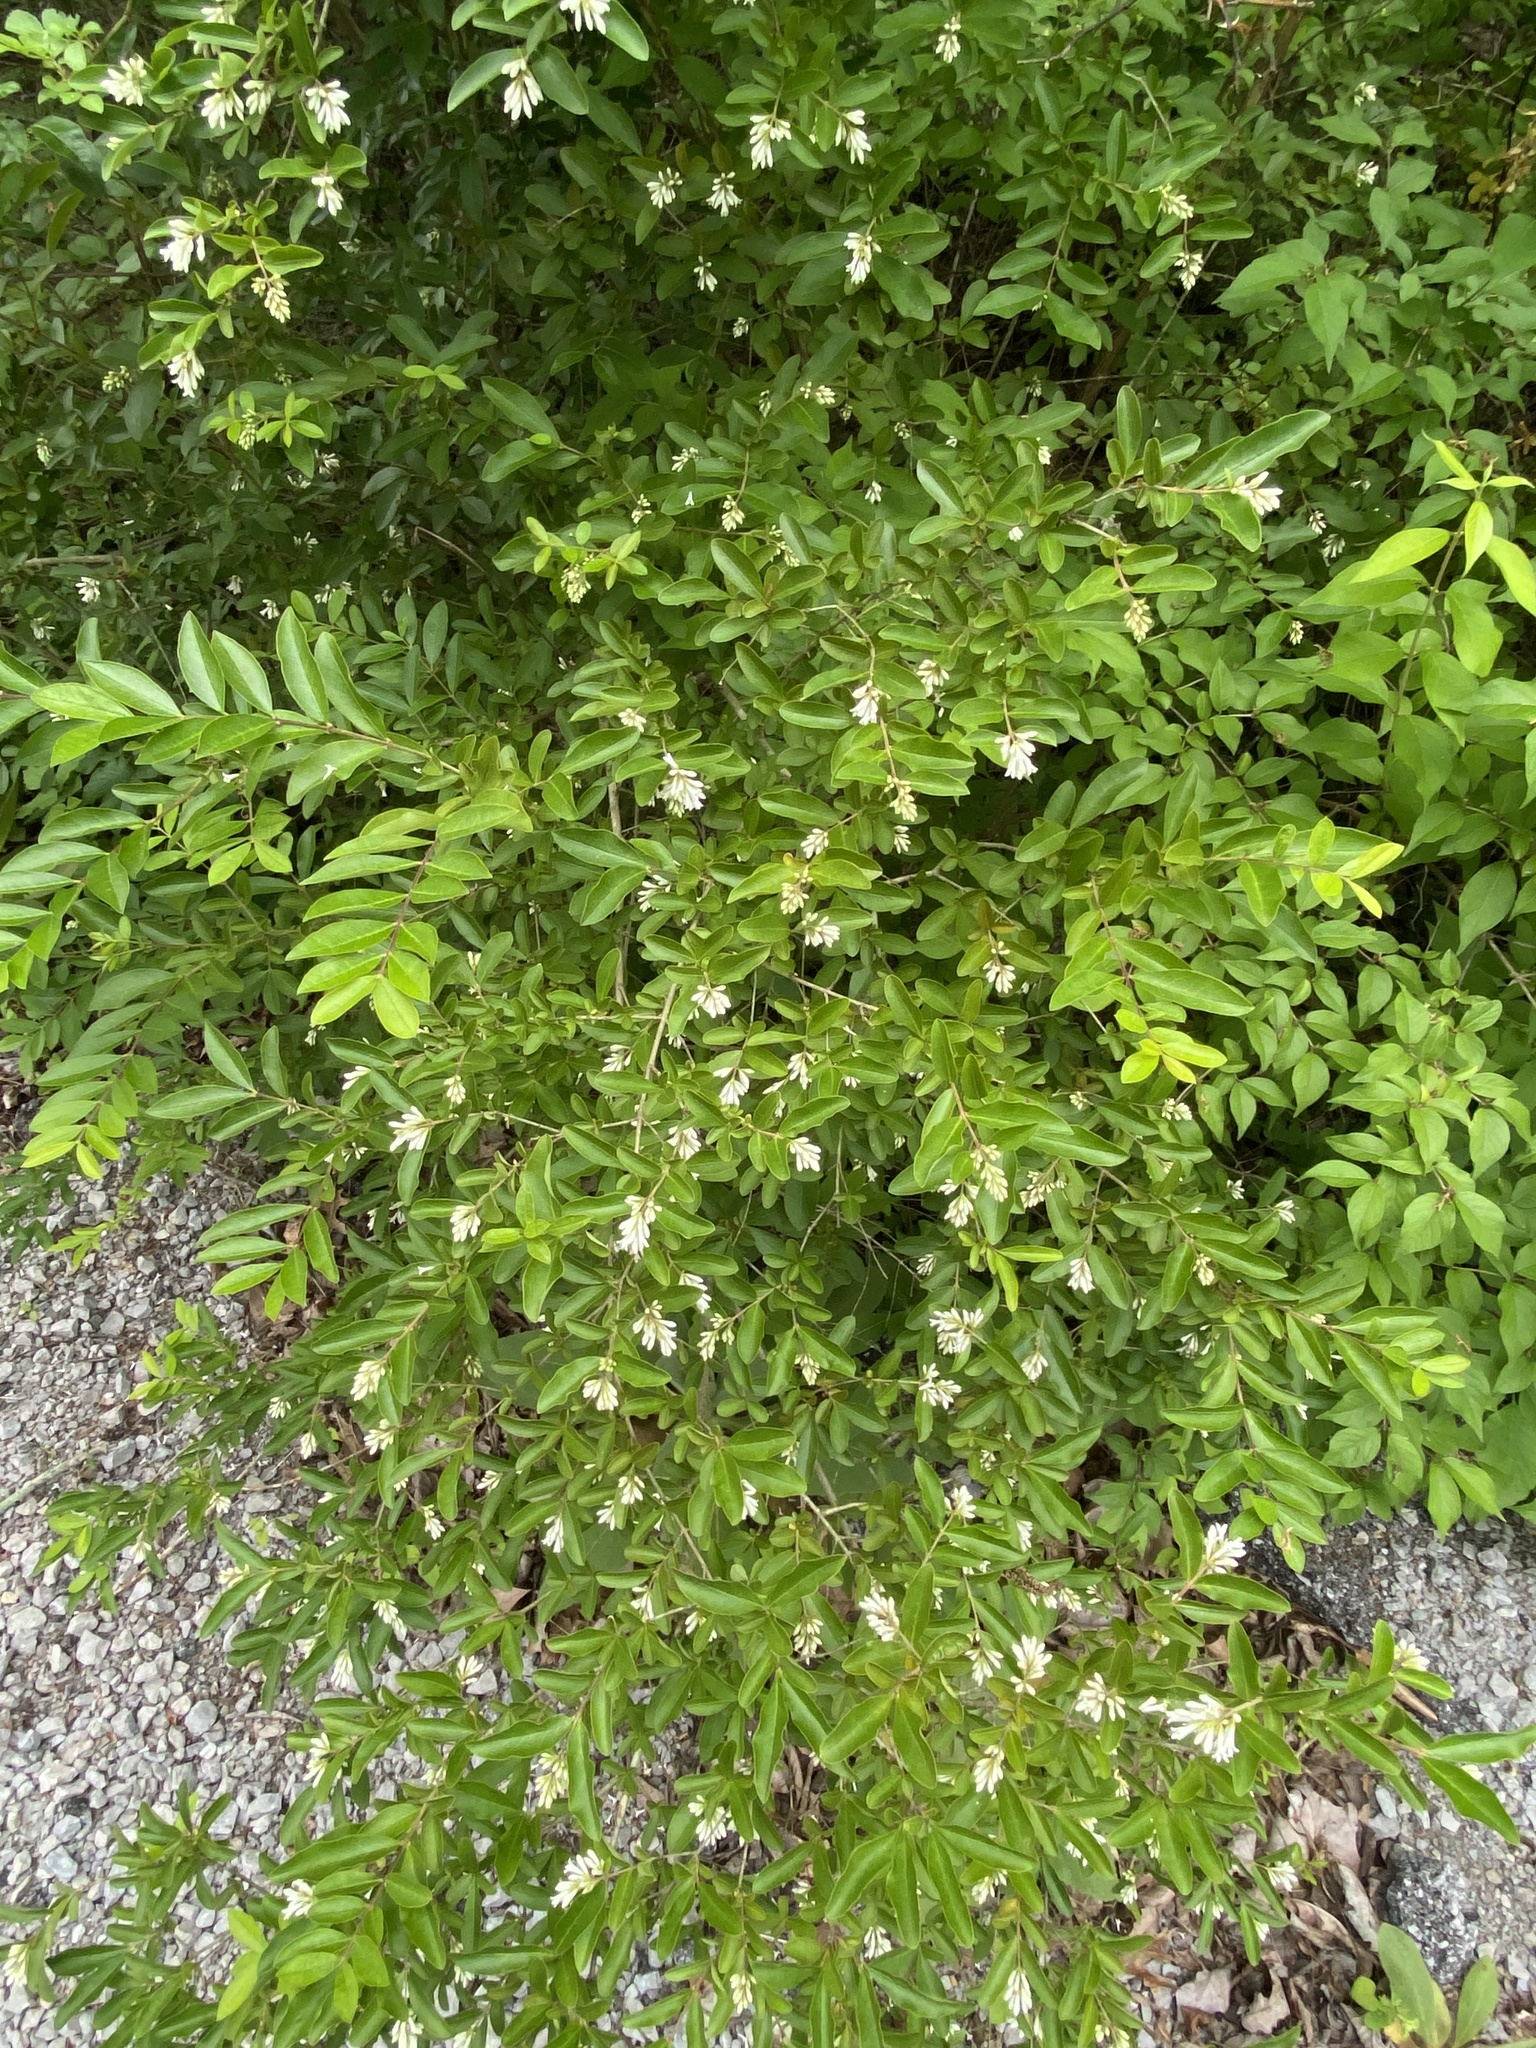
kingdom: Plantae
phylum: Tracheophyta
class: Magnoliopsida
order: Lamiales
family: Oleaceae
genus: Ligustrum
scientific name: Ligustrum obtusifolium
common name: Border privet
